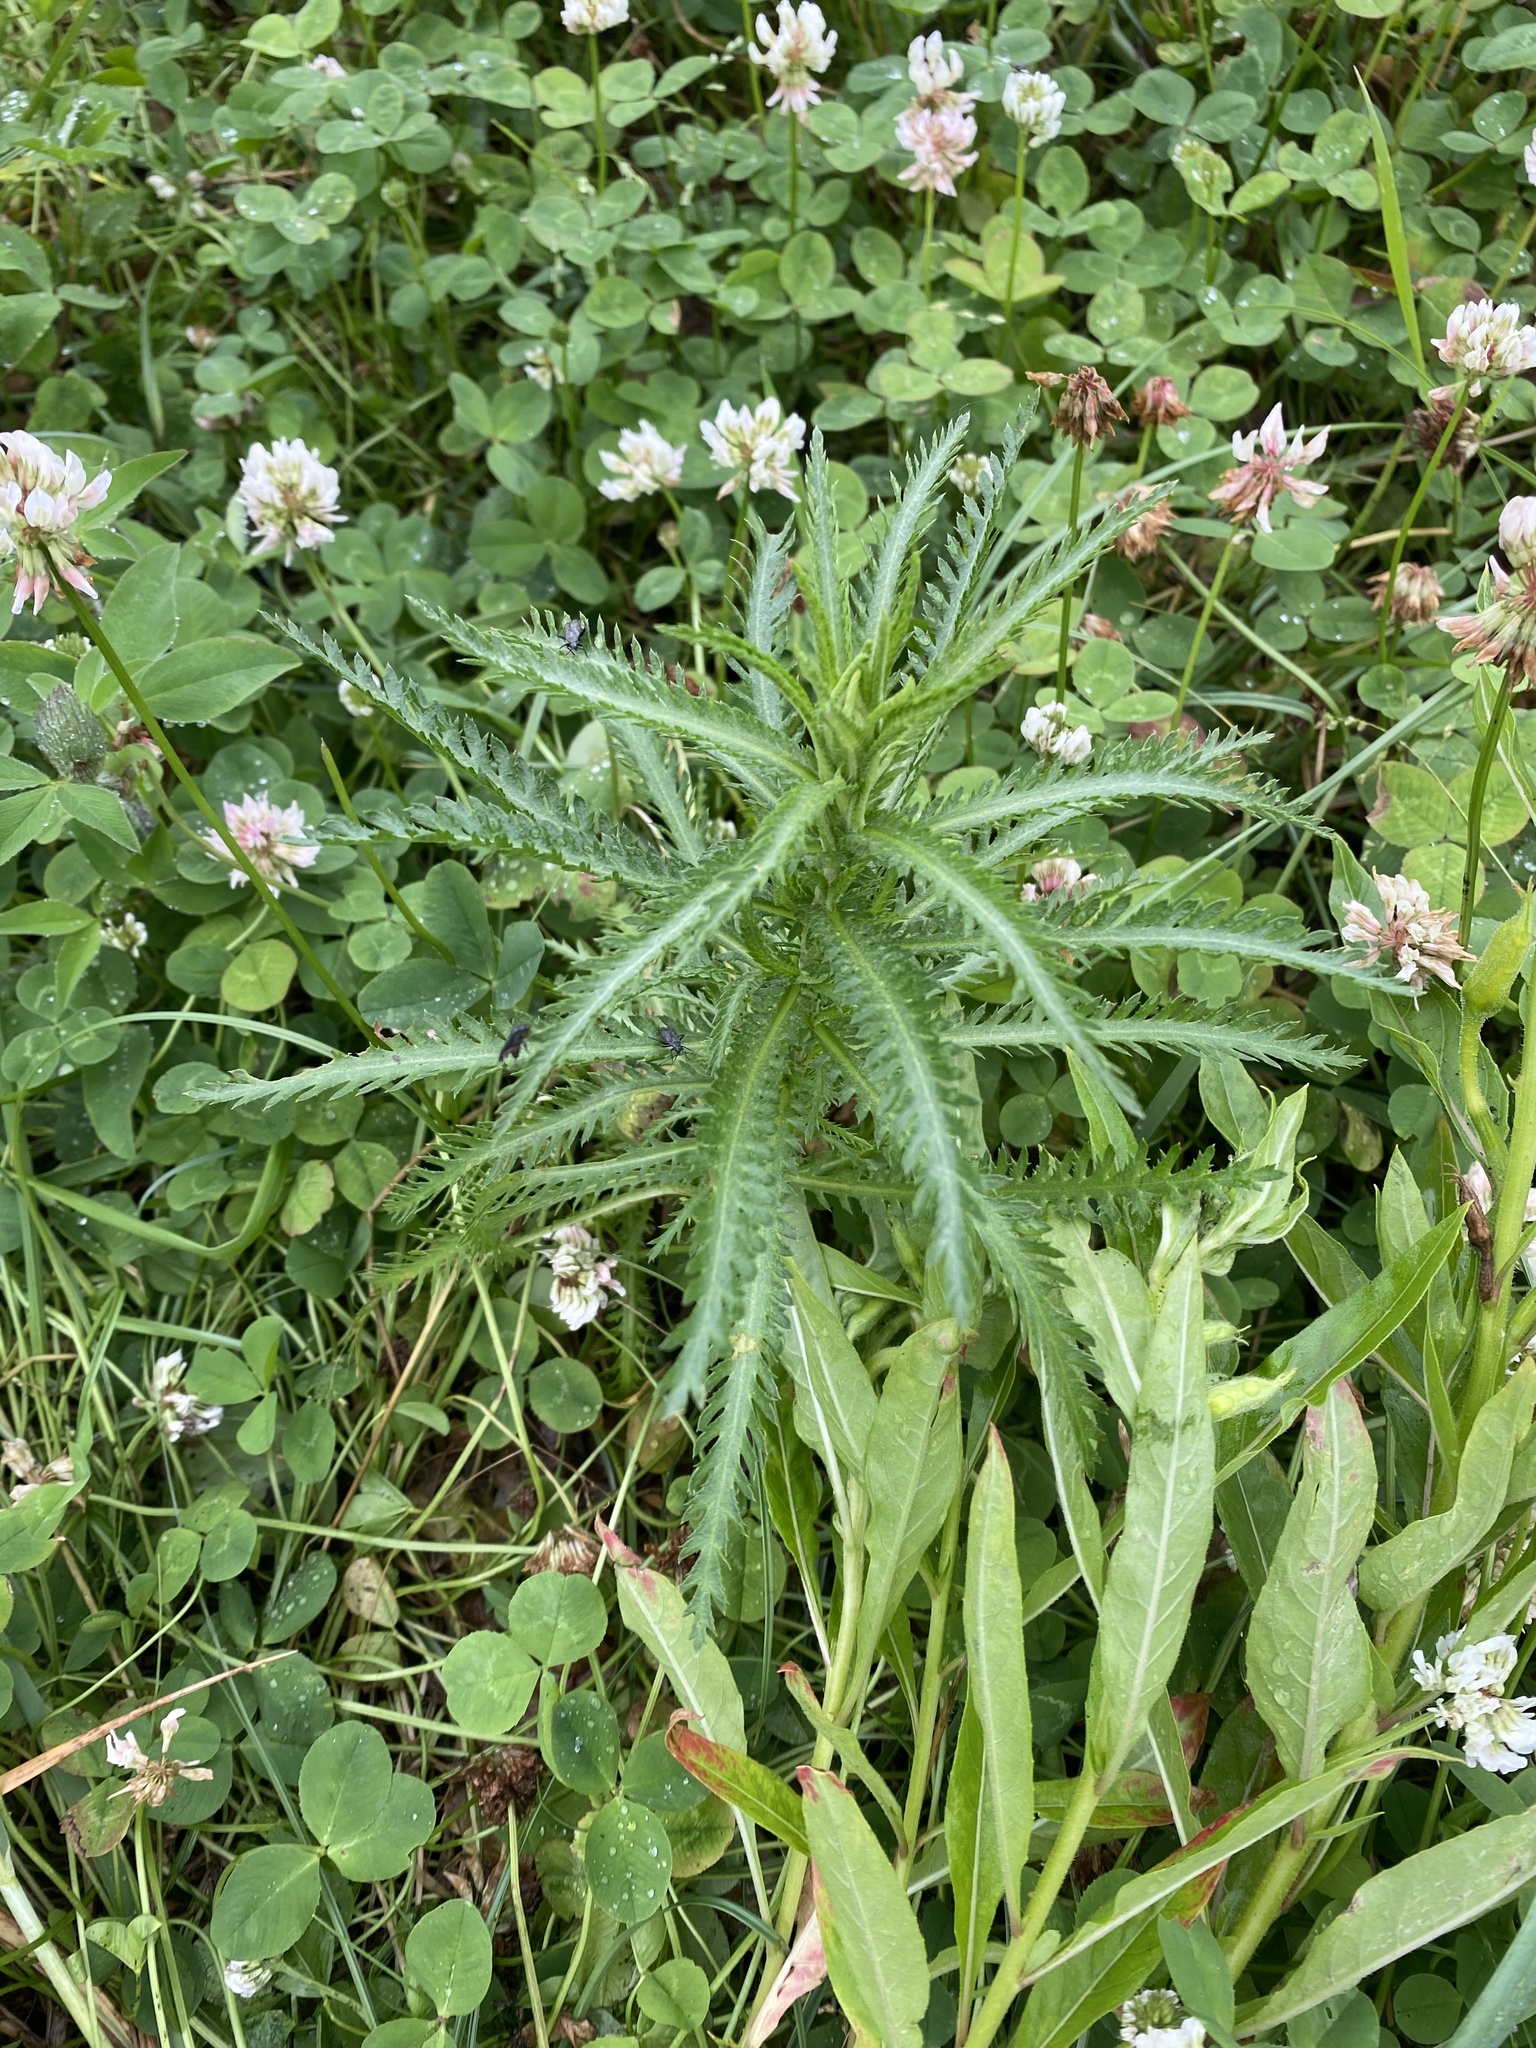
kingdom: Plantae
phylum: Tracheophyta
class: Magnoliopsida
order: Asterales
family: Asteraceae
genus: Achillea
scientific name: Achillea alpina
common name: Siberian yarrow
